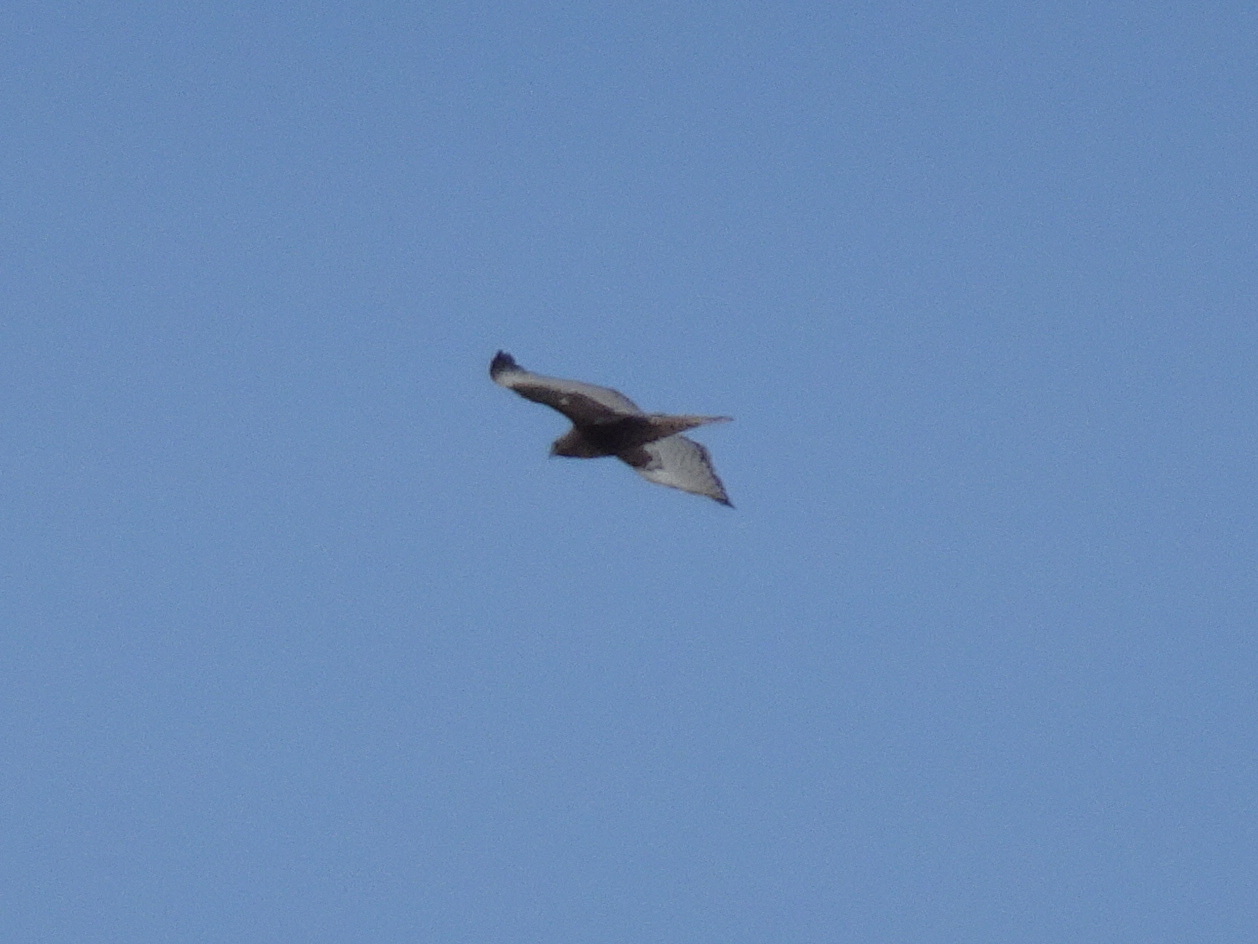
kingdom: Animalia
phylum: Chordata
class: Aves
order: Accipitriformes
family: Accipitridae
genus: Buteo
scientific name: Buteo jamaicensis
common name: Red-tailed hawk
